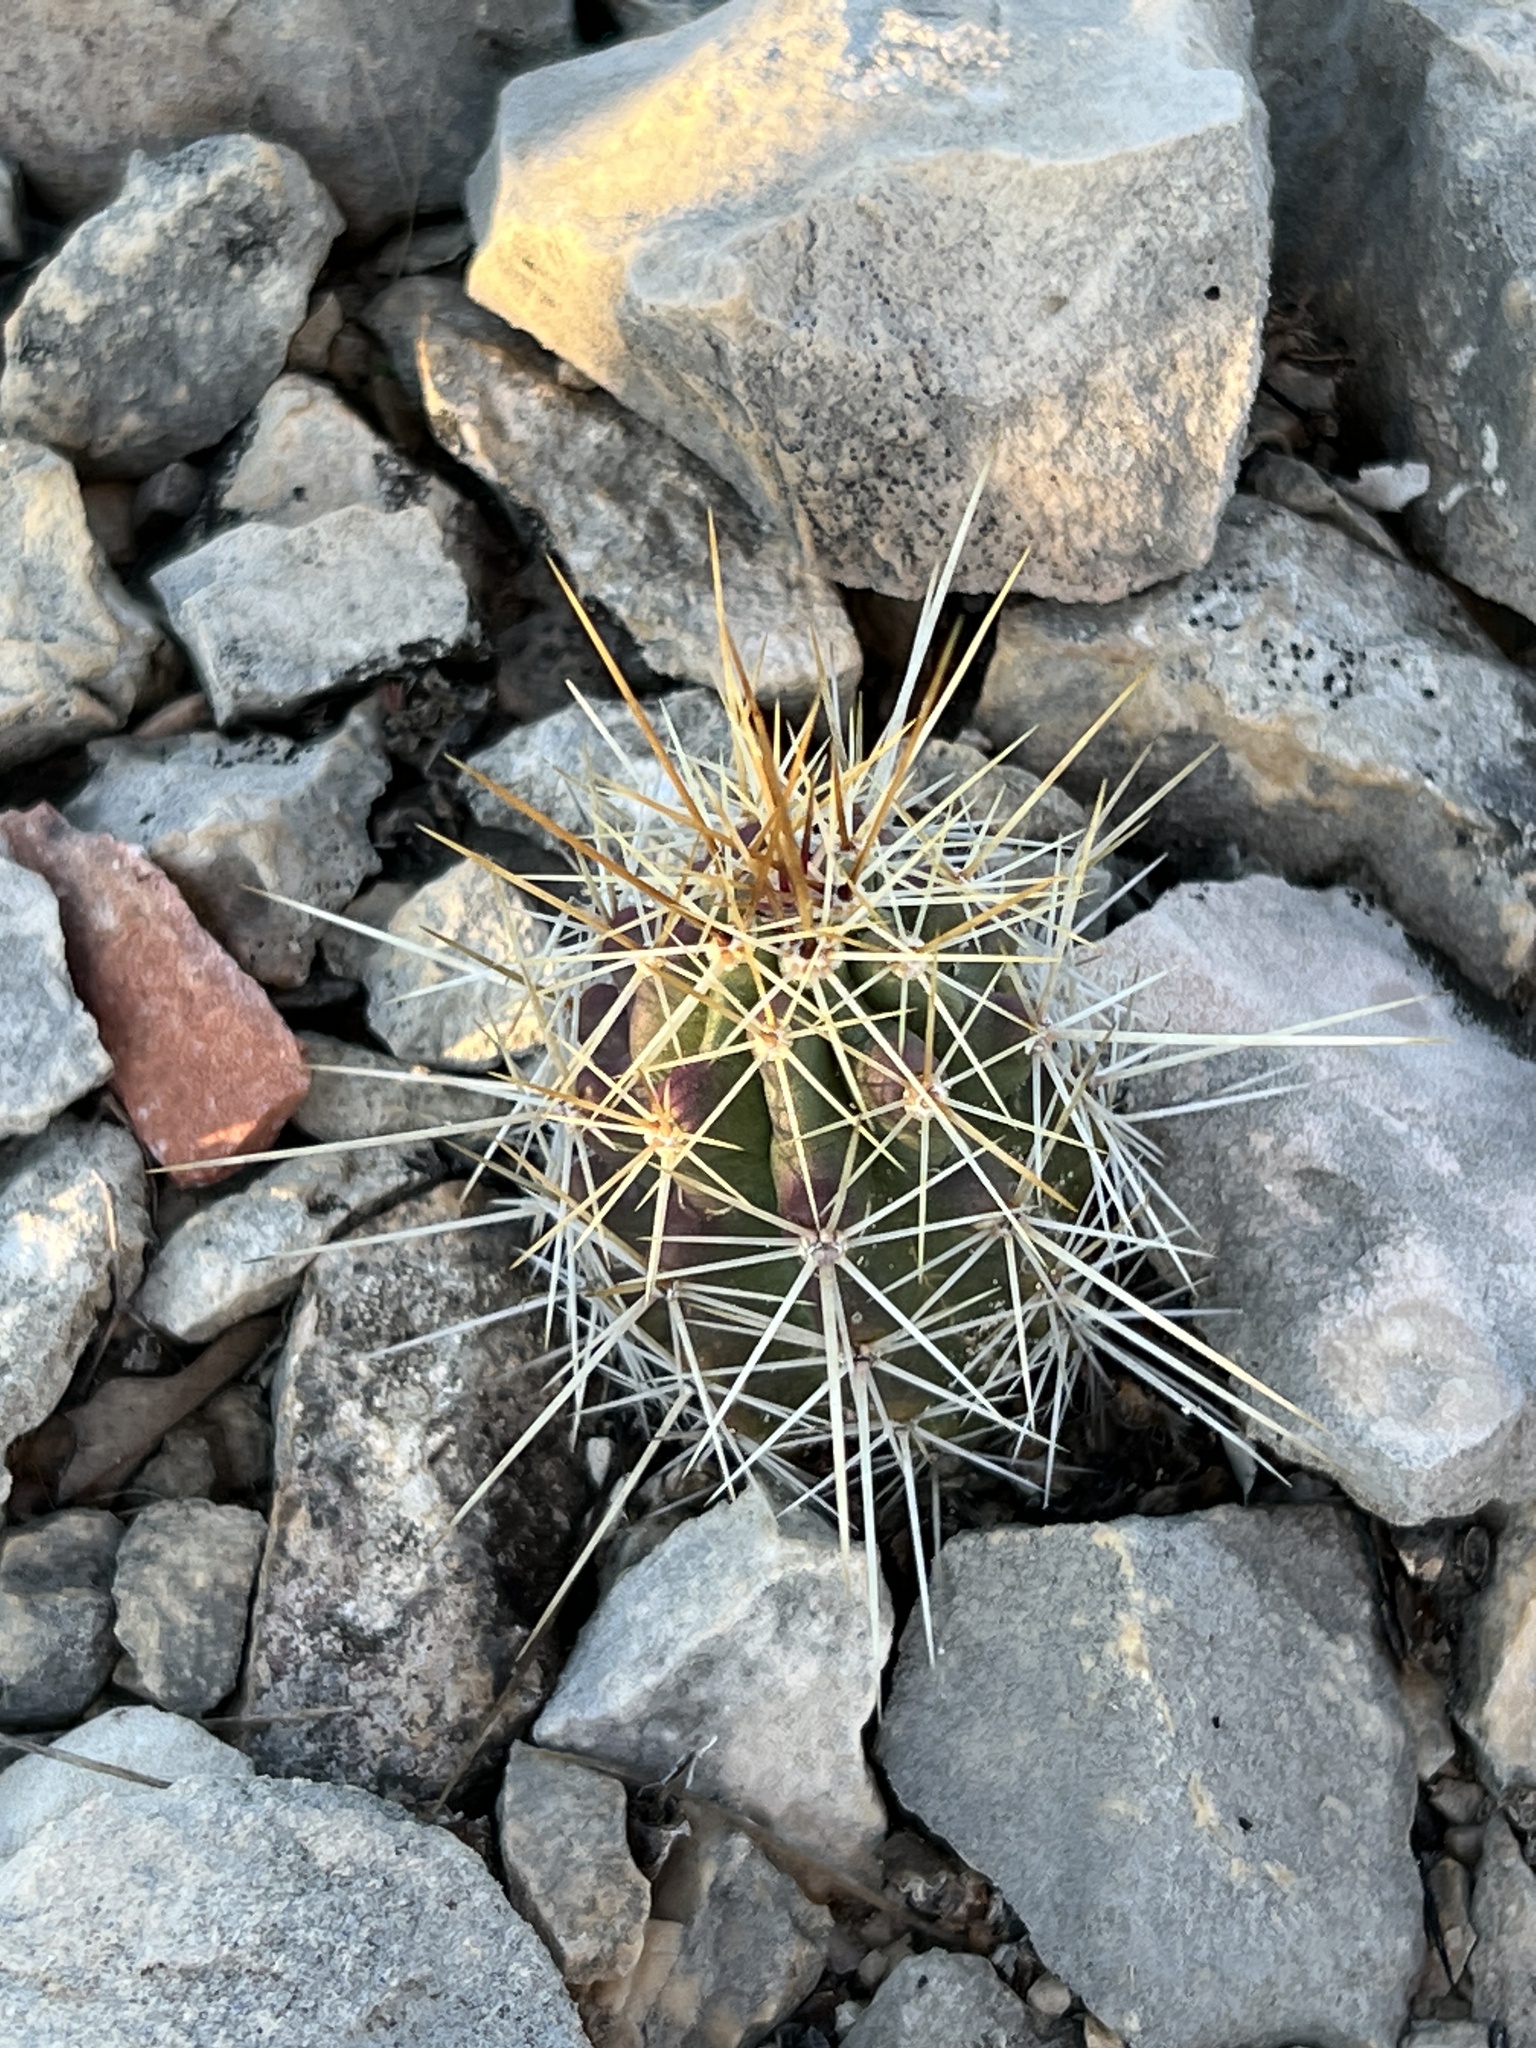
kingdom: Plantae
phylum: Tracheophyta
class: Magnoliopsida
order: Caryophyllales
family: Cactaceae
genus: Echinocereus
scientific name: Echinocereus enneacanthus
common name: Pitaya
